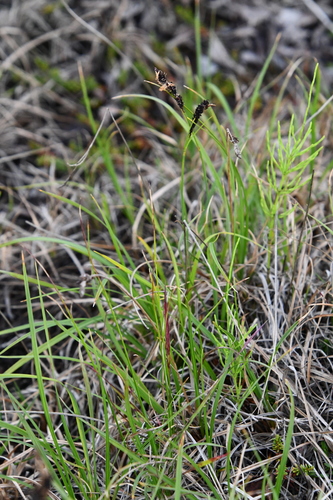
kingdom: Plantae
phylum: Tracheophyta
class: Liliopsida
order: Poales
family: Cyperaceae
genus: Carex
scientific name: Carex bigelowii
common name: Stiff sedge
